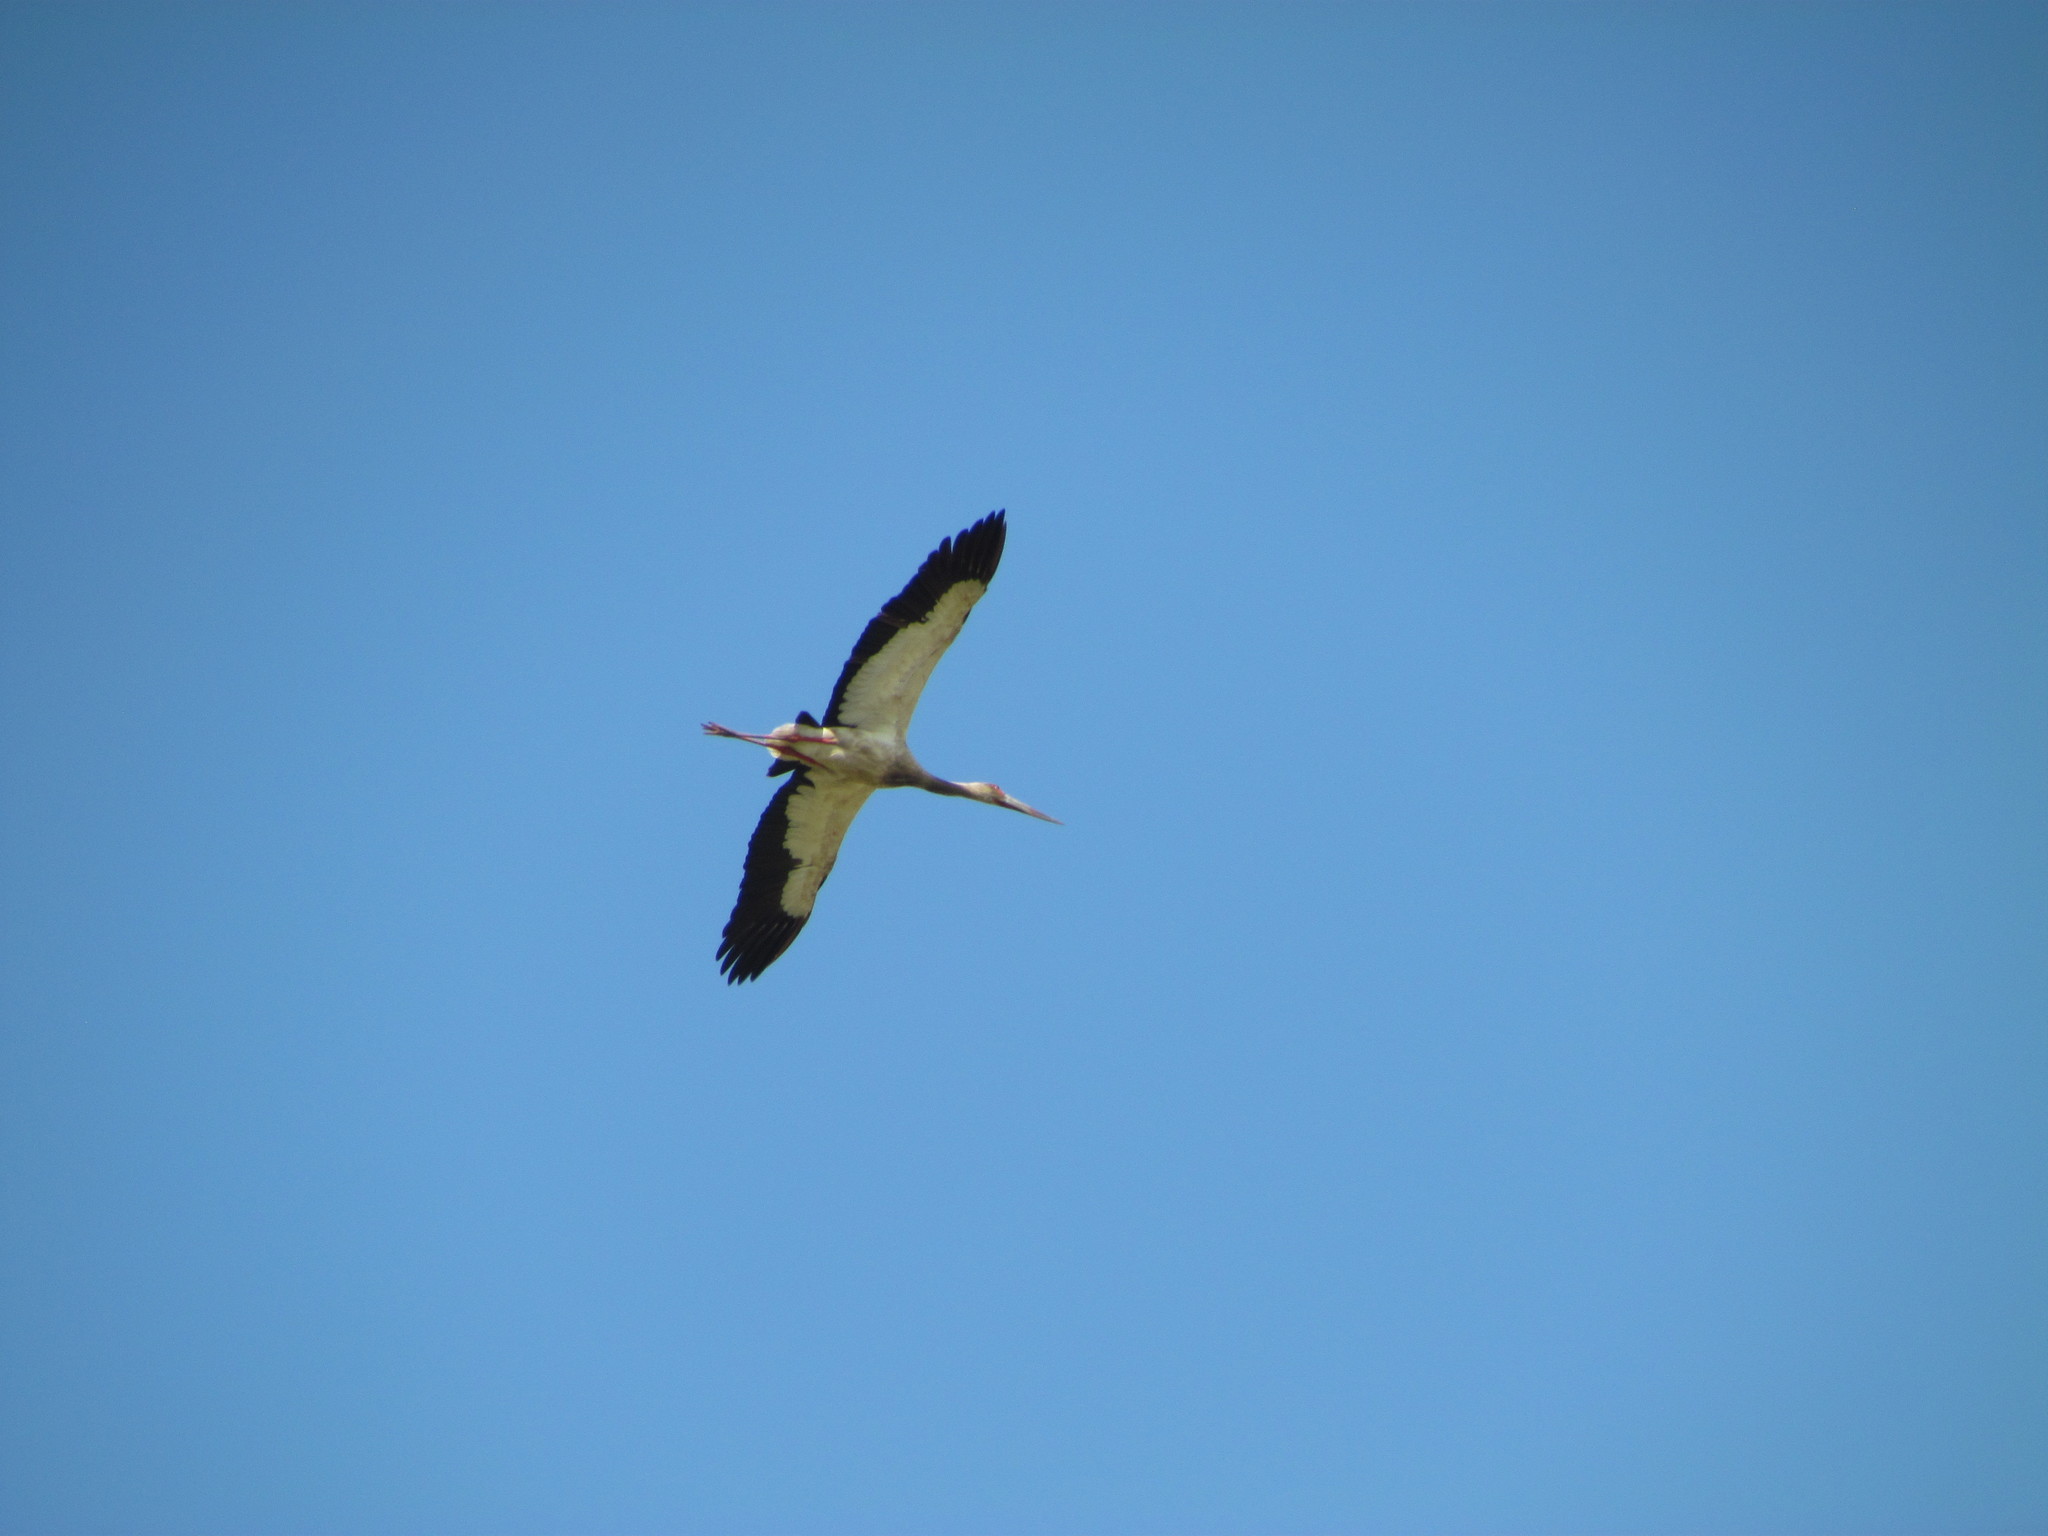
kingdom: Animalia
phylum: Chordata
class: Aves
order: Ciconiiformes
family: Ciconiidae
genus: Ciconia
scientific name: Ciconia maguari
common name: Maguari stork
